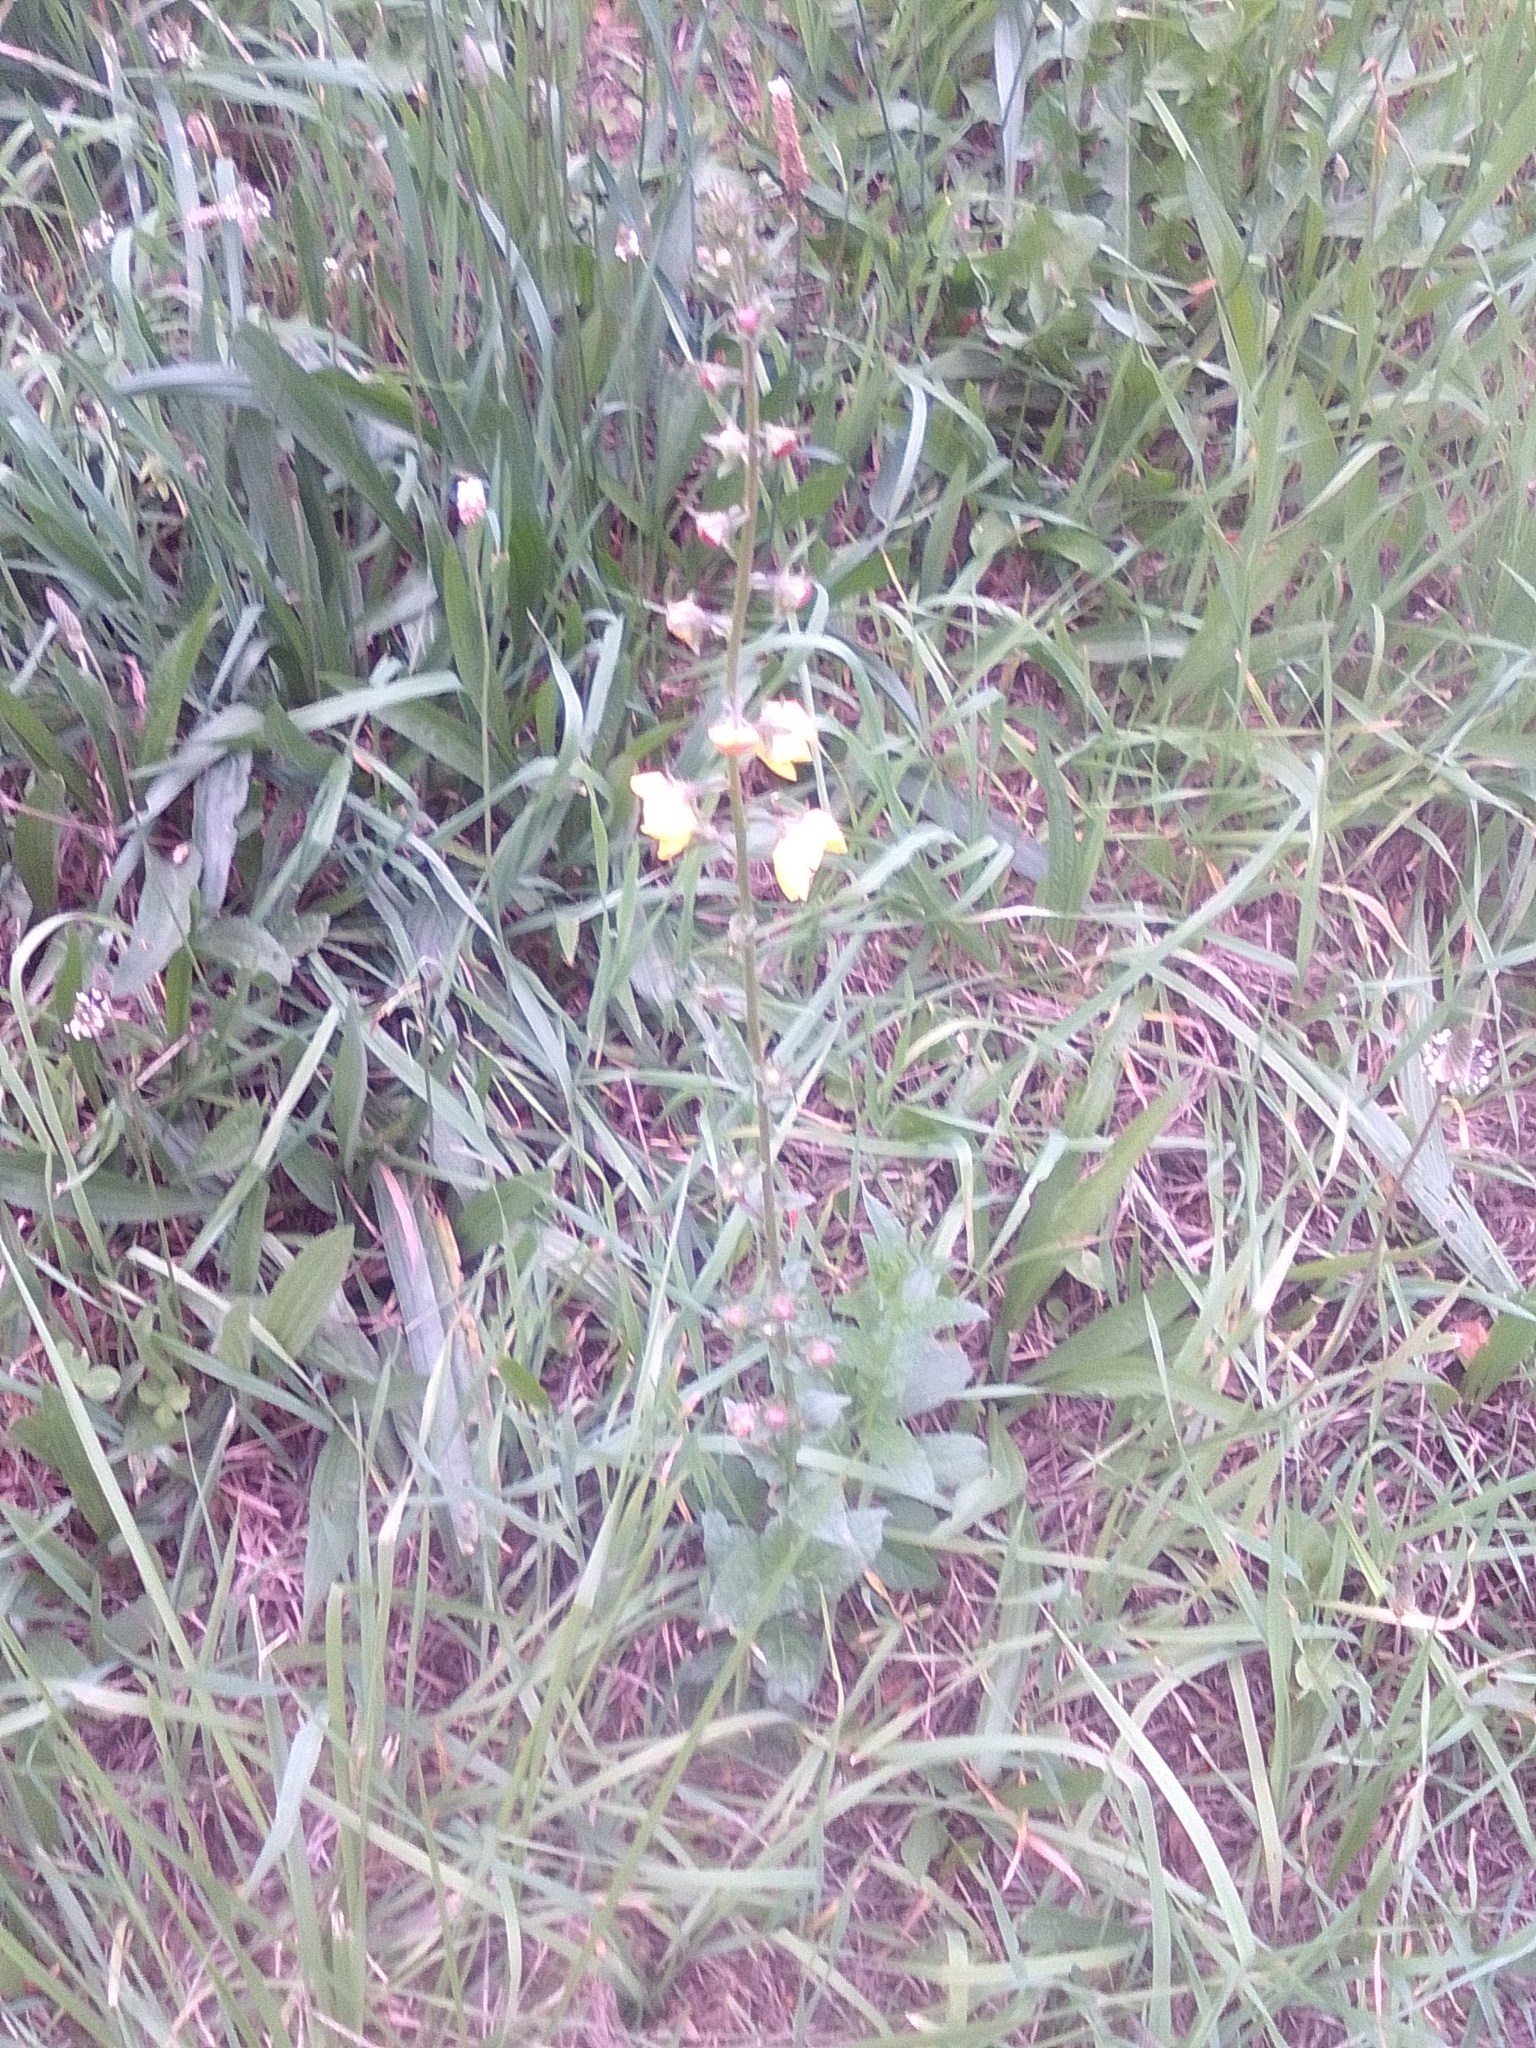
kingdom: Plantae
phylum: Tracheophyta
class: Magnoliopsida
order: Lamiales
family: Scrophulariaceae
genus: Verbascum
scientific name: Verbascum nigrum
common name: Dark mullein
